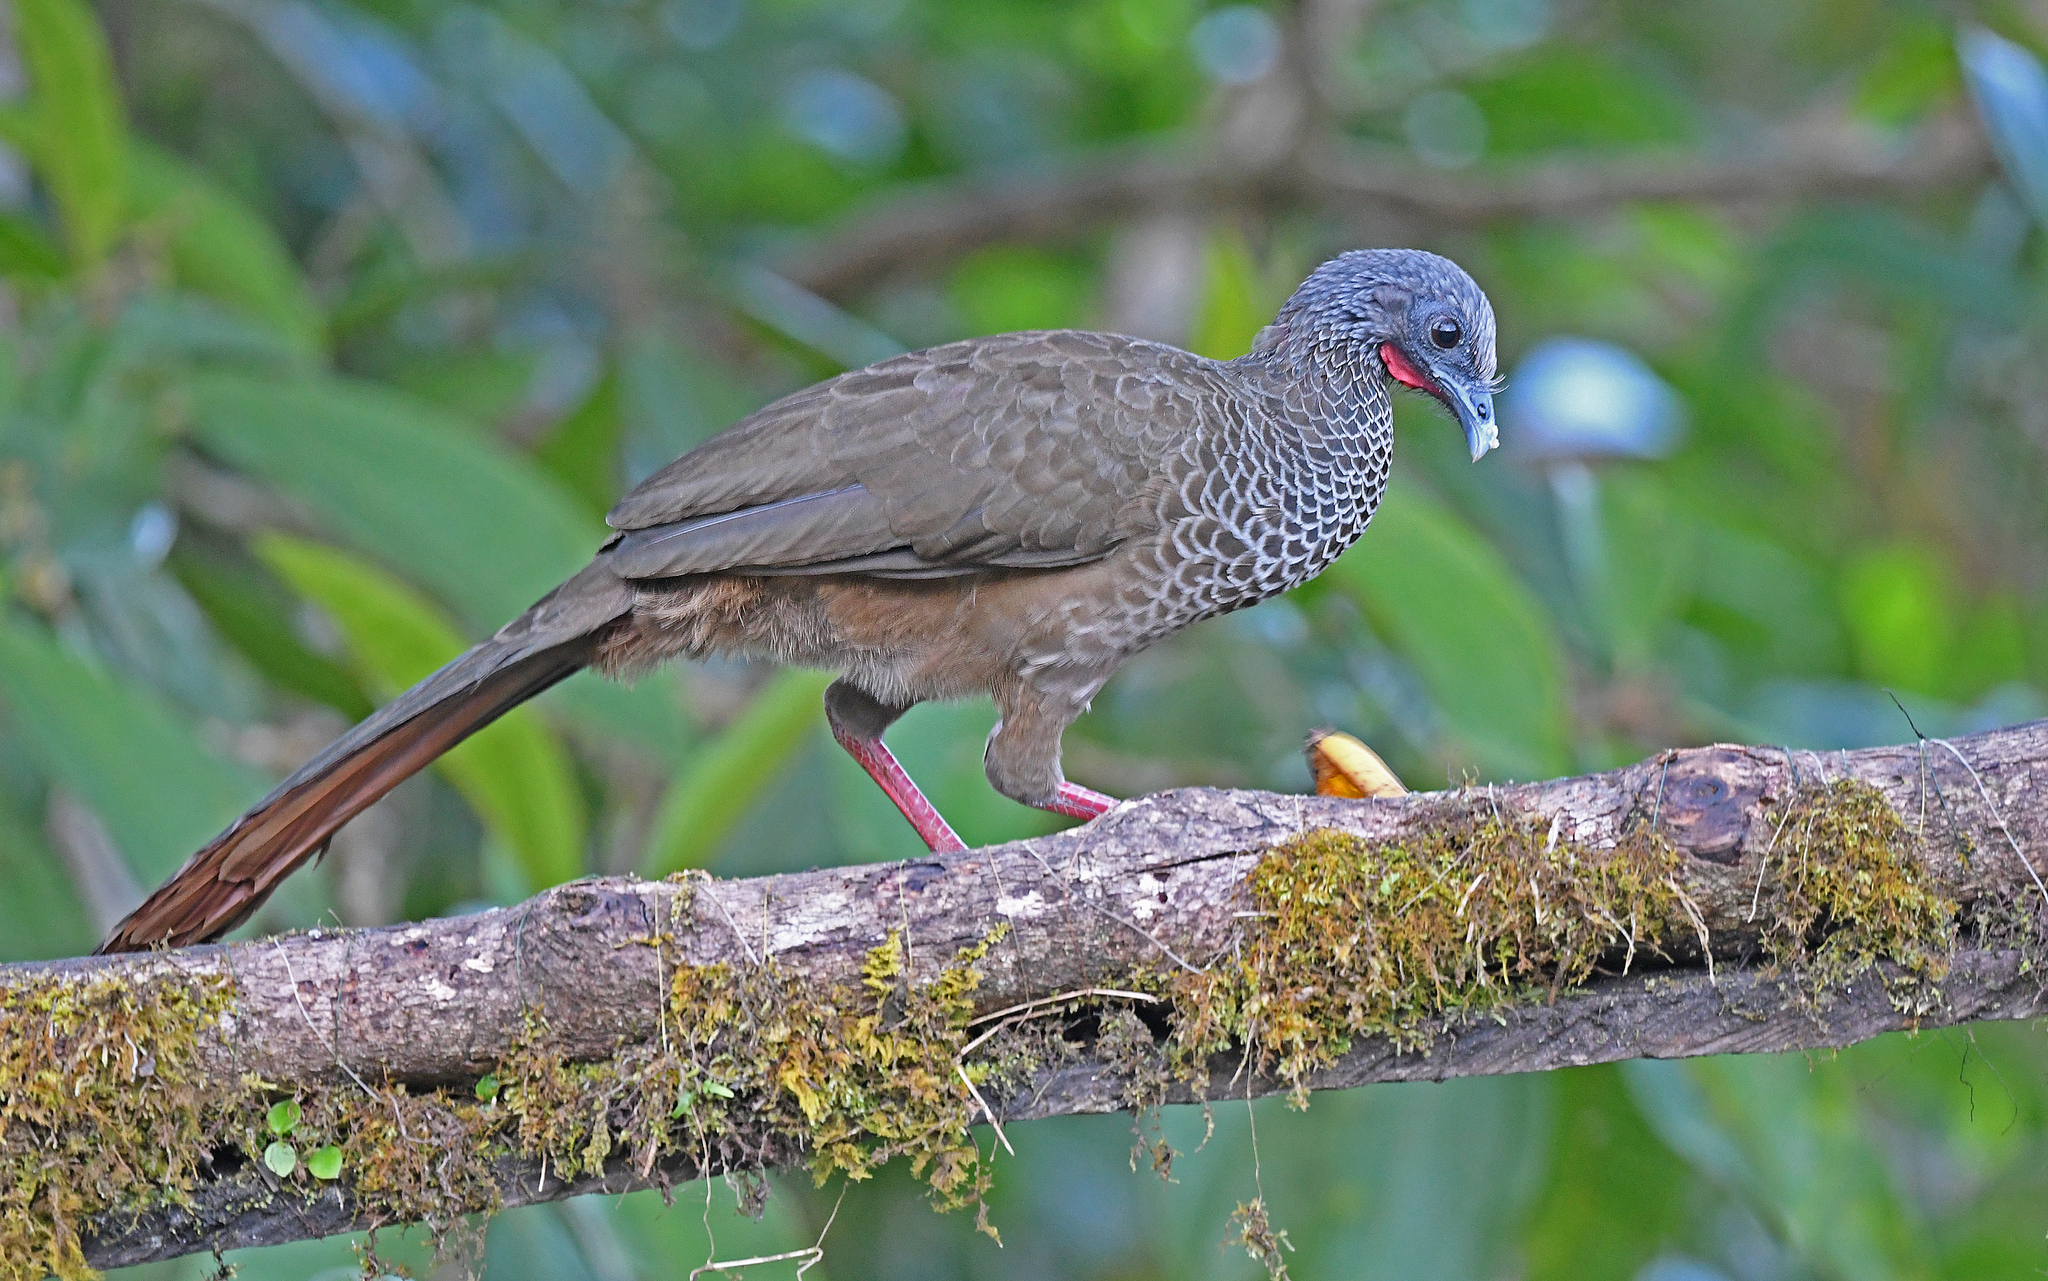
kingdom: Animalia
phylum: Chordata
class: Aves
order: Galliformes
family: Cracidae
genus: Ortalis
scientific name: Ortalis columbiana
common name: Colombian chachalaca
